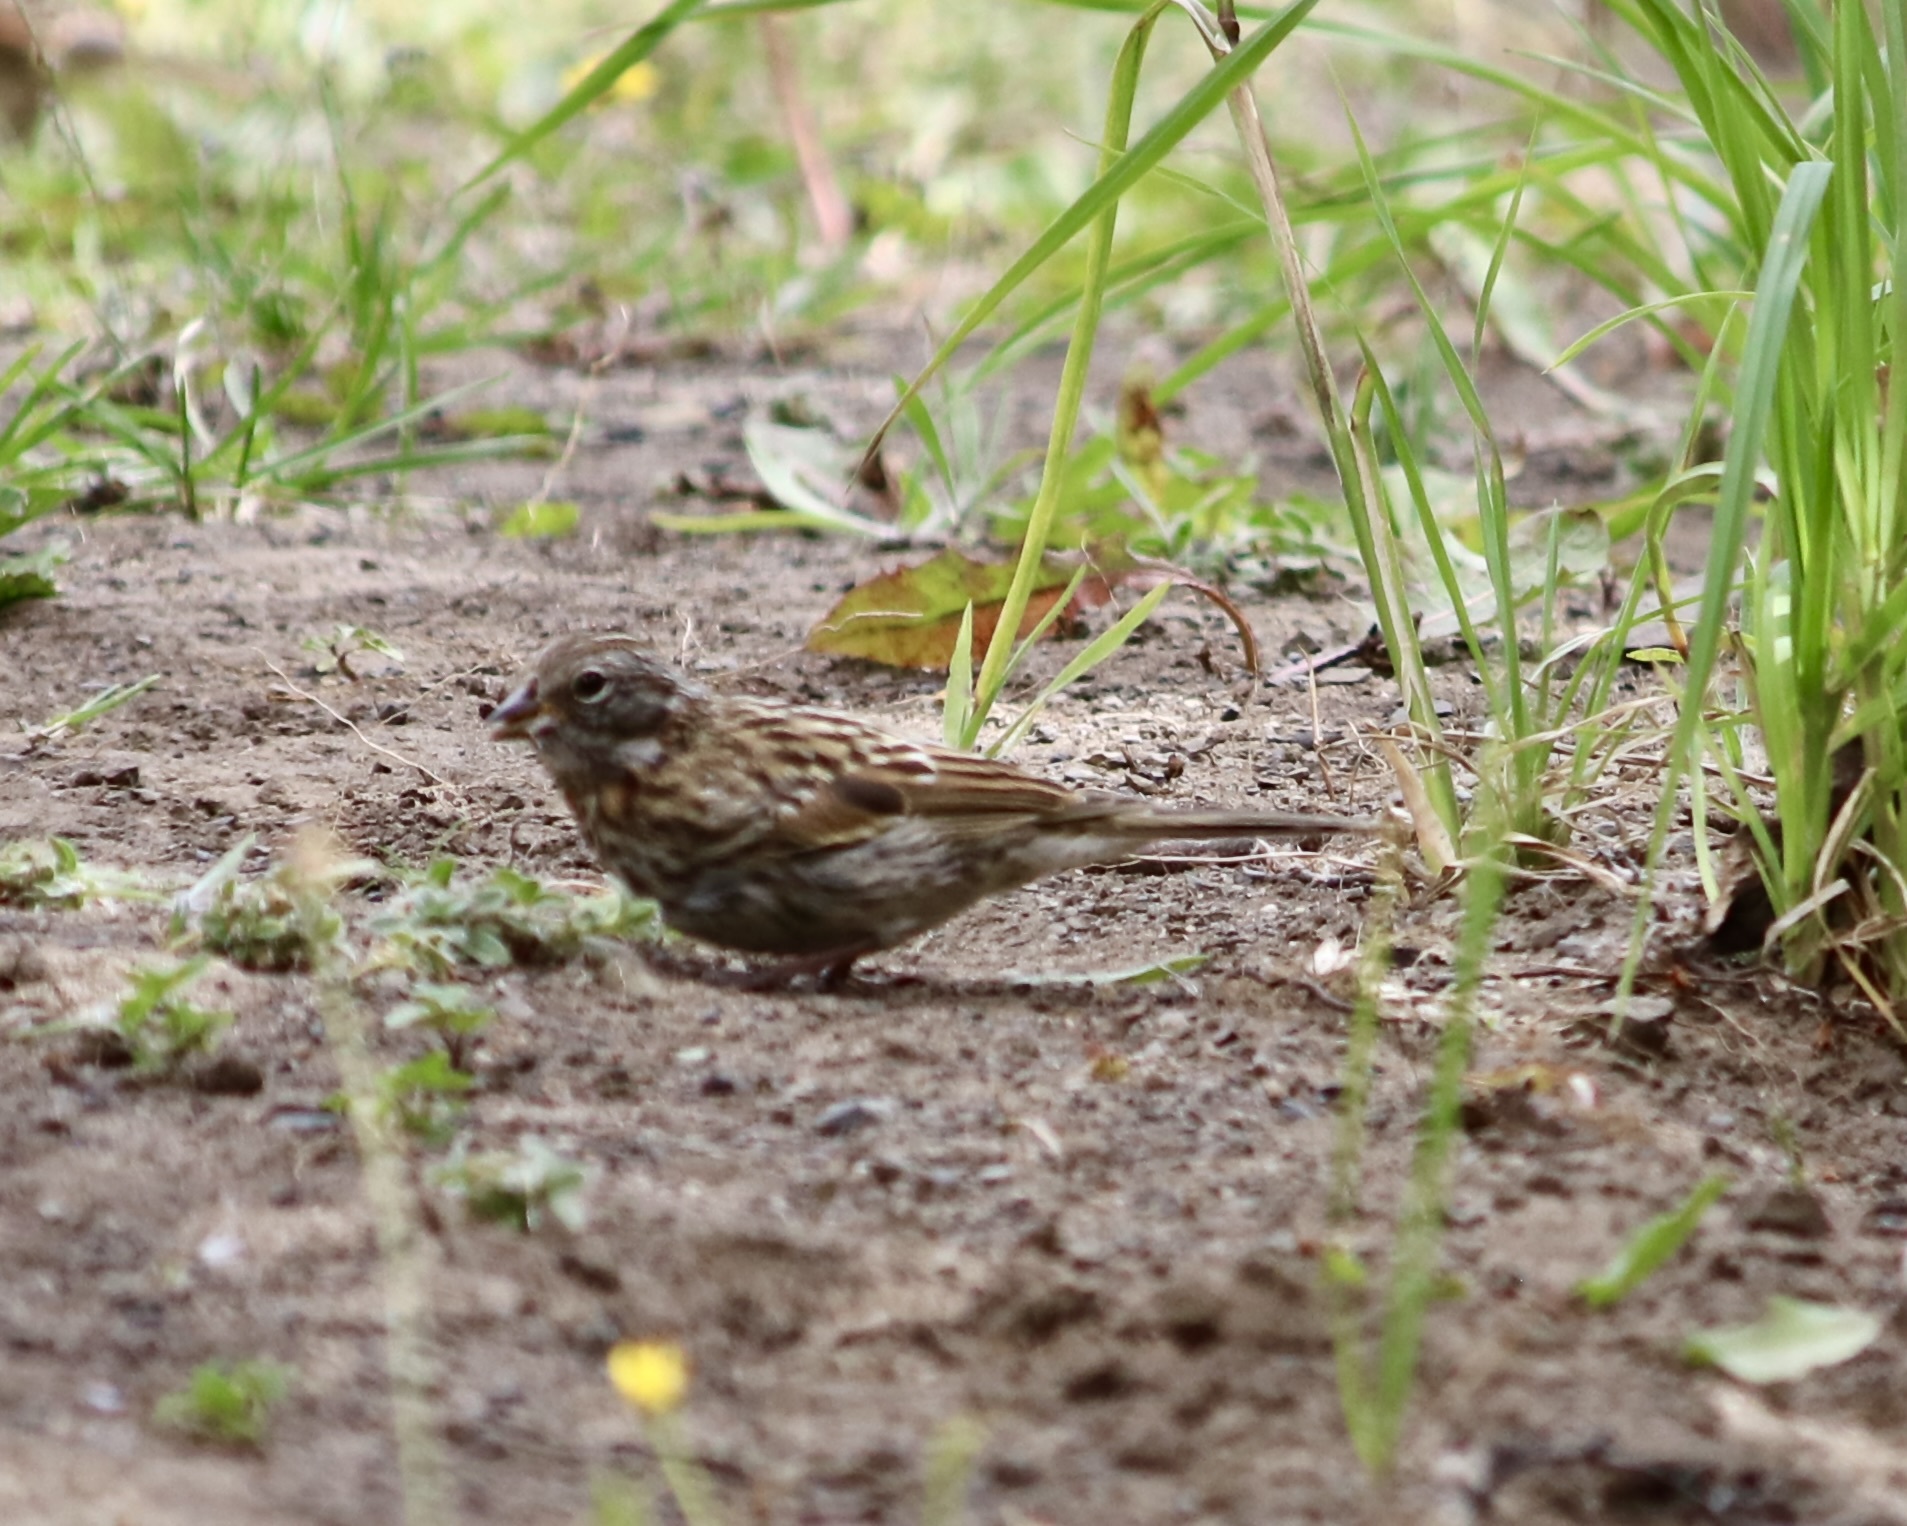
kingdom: Animalia
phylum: Chordata
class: Aves
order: Passeriformes
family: Passerellidae
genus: Zonotrichia
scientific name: Zonotrichia capensis
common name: Rufous-collared sparrow
